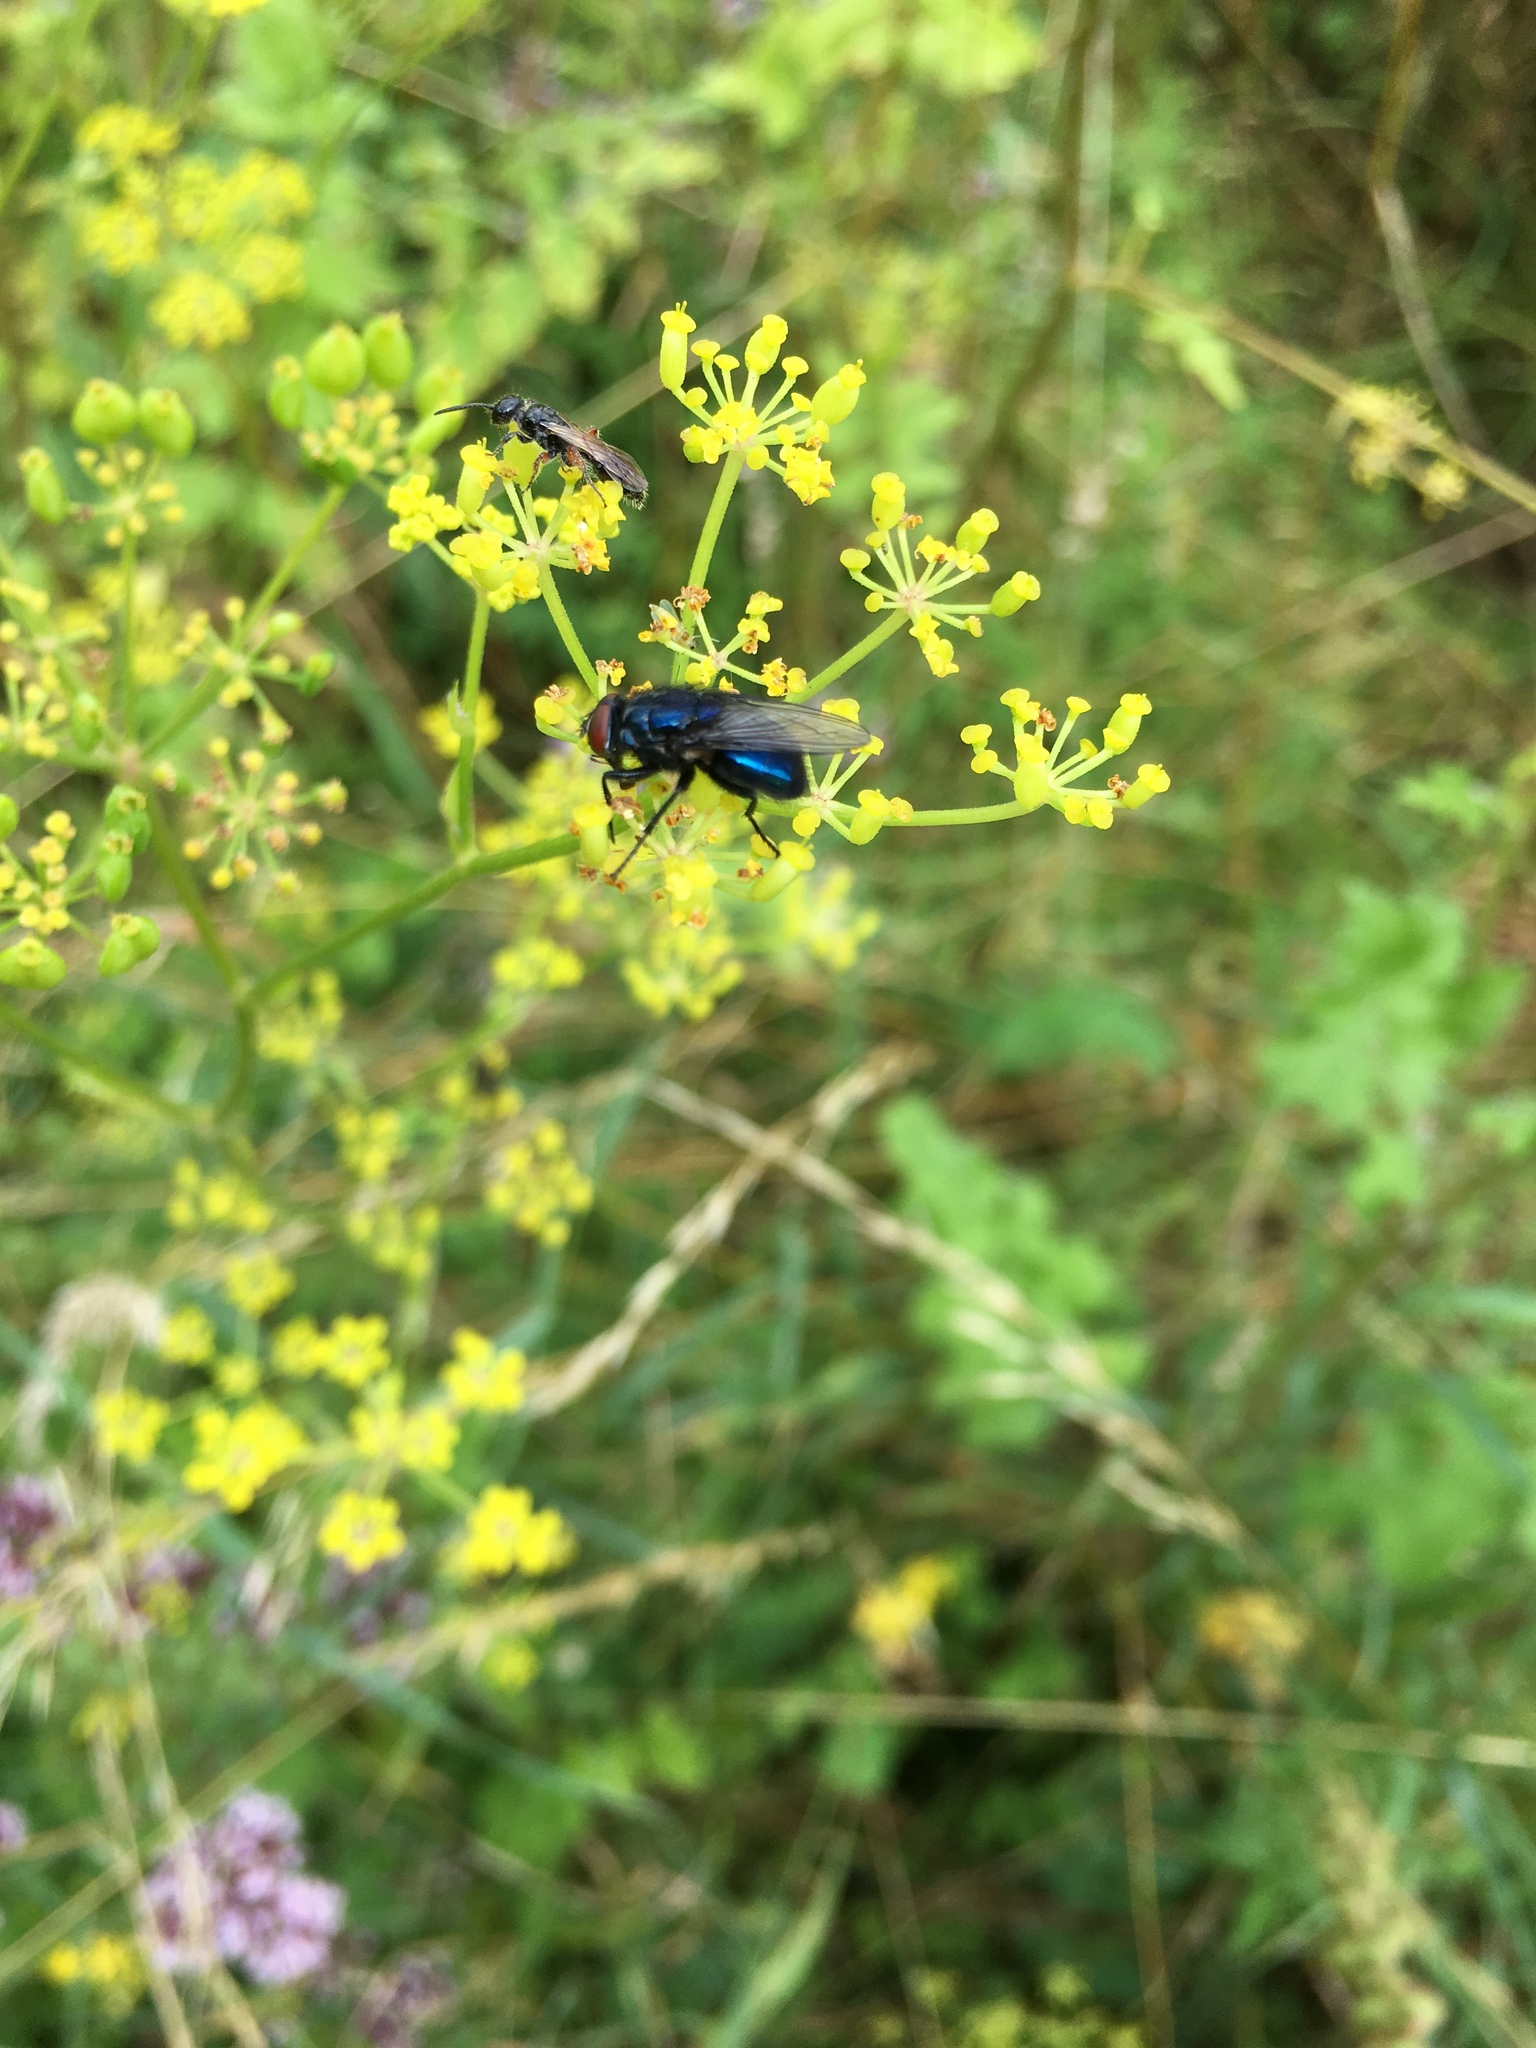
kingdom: Animalia
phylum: Arthropoda
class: Insecta
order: Diptera
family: Calliphoridae
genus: Protocalliphora
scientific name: Protocalliphora azurea
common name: Bird blowfly
